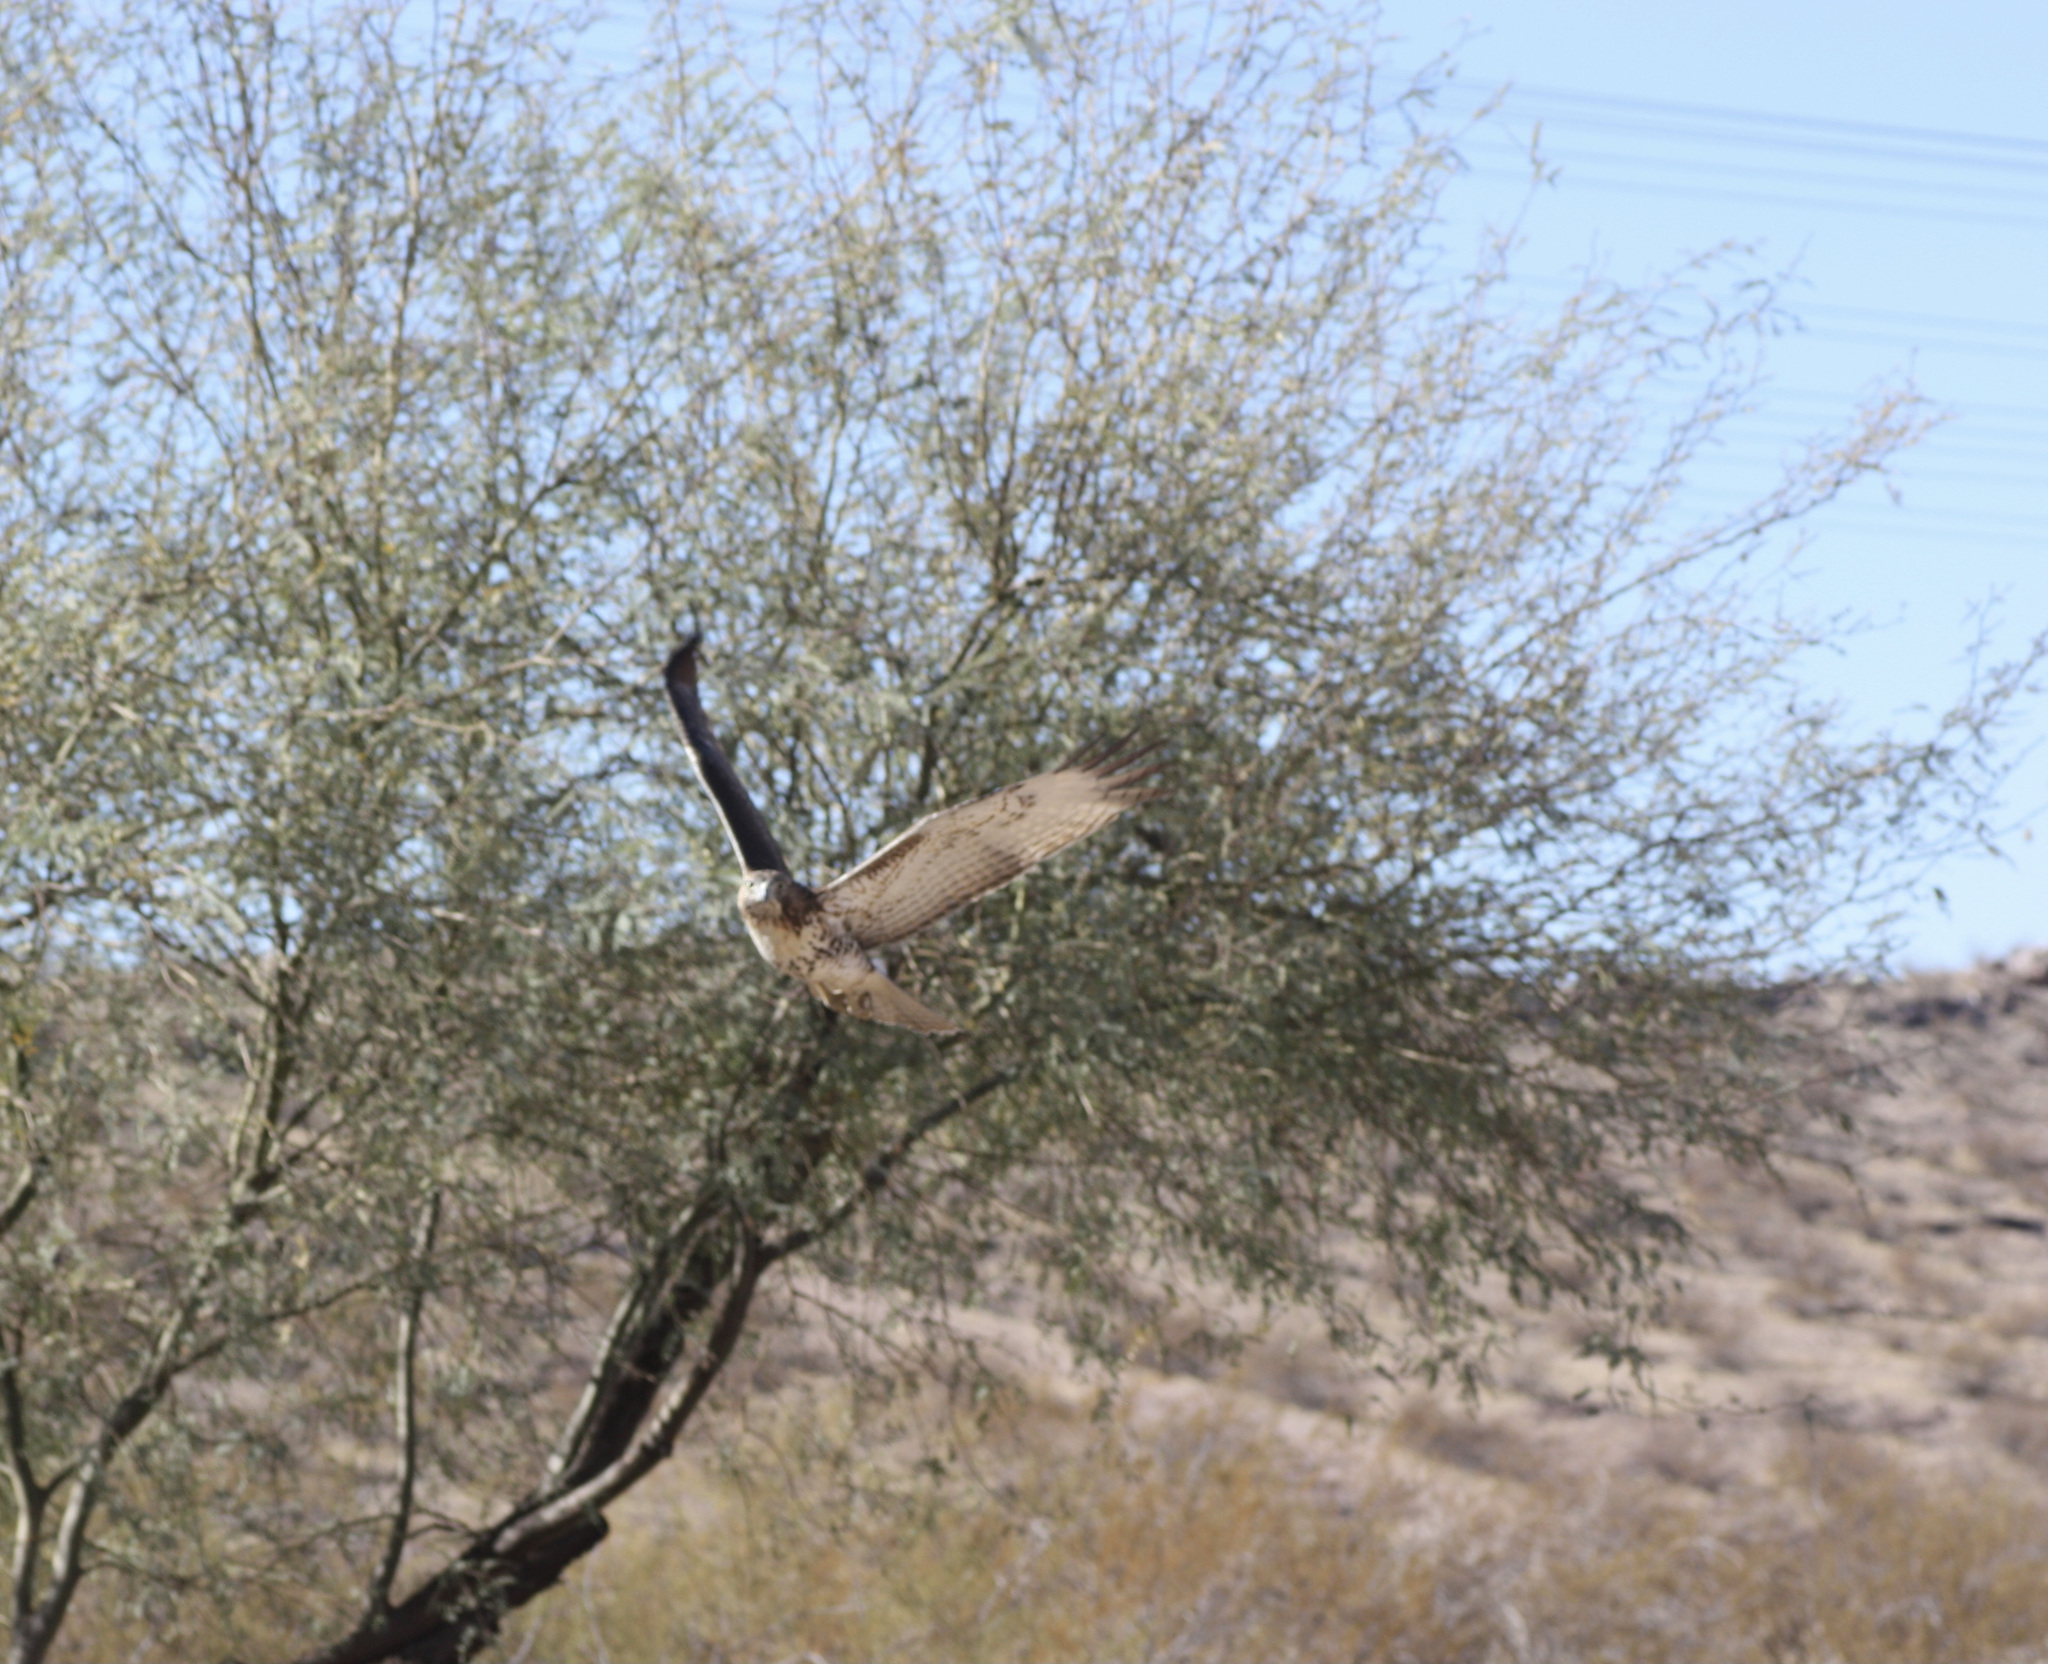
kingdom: Animalia
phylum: Chordata
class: Aves
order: Accipitriformes
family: Accipitridae
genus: Buteo
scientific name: Buteo jamaicensis
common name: Red-tailed hawk
